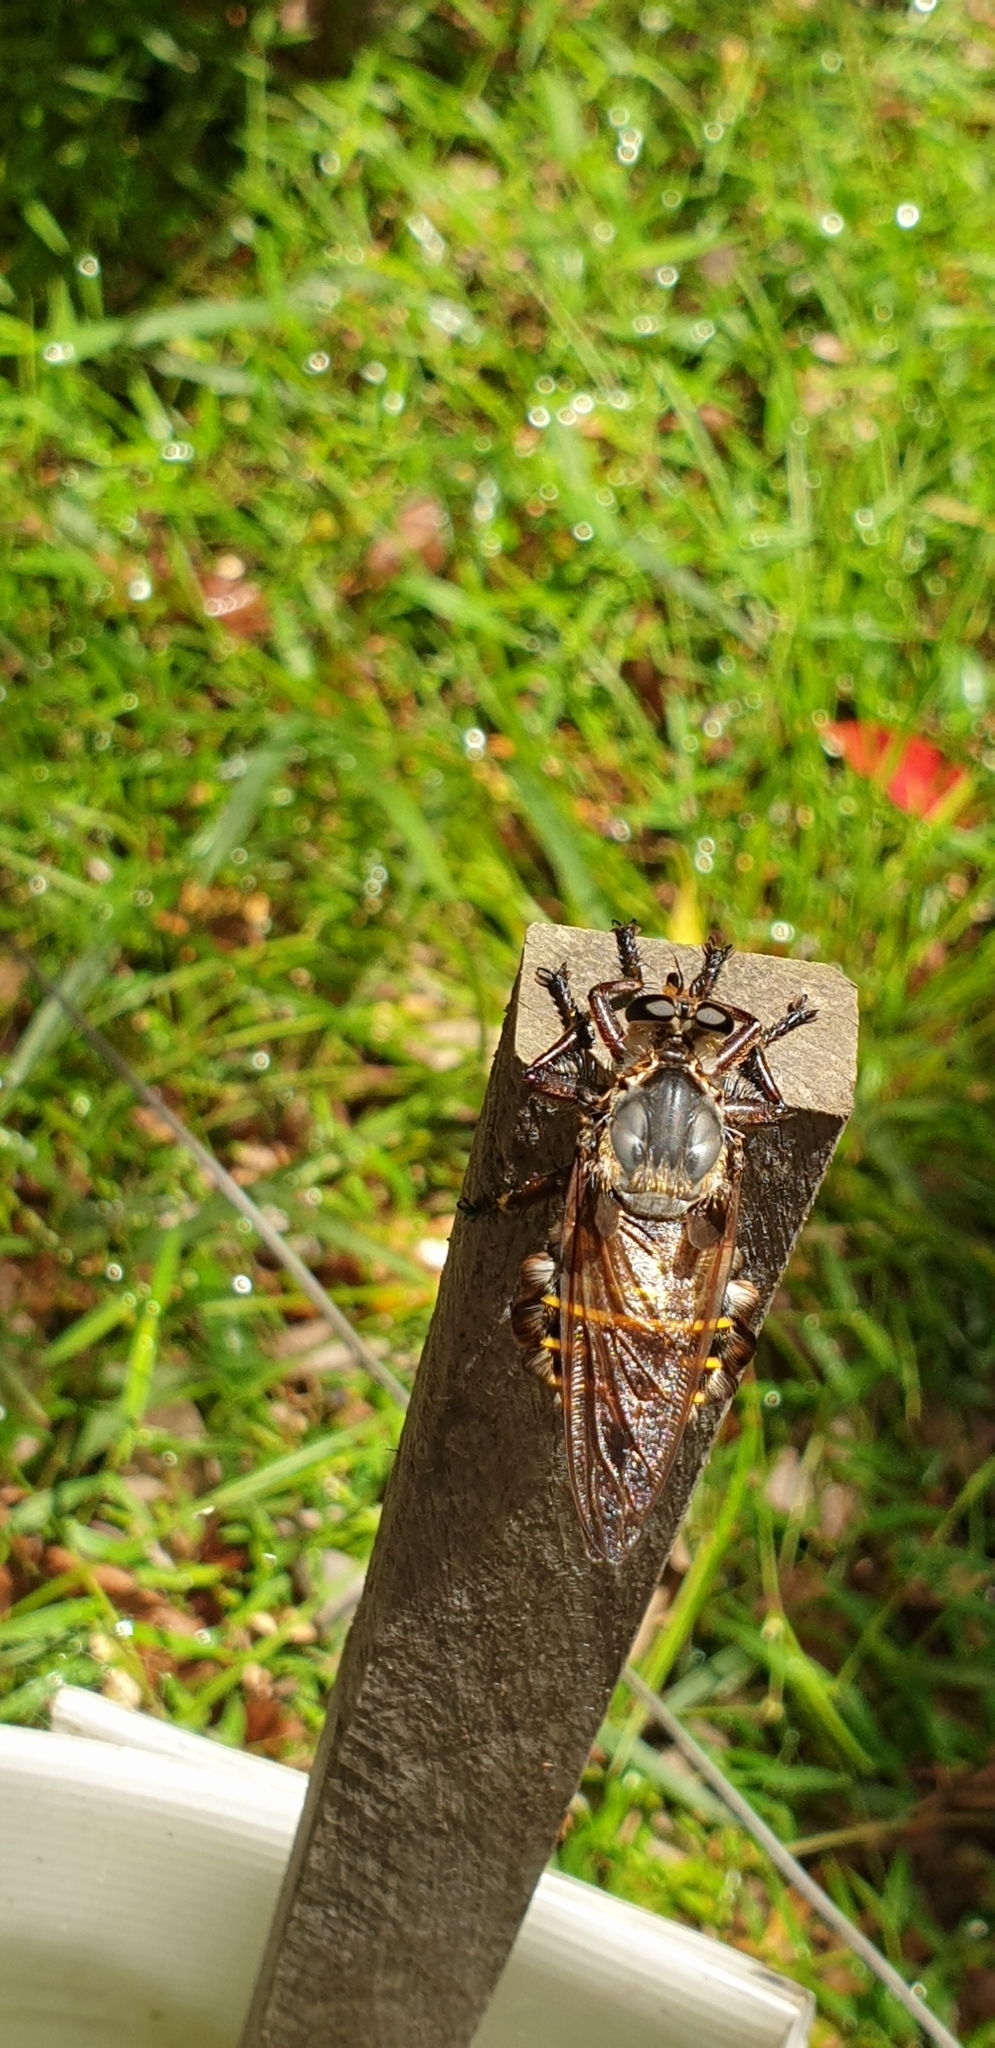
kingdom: Animalia
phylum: Arthropoda
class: Insecta
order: Diptera
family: Asilidae
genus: Blepharotes
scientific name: Blepharotes splendidissimus
